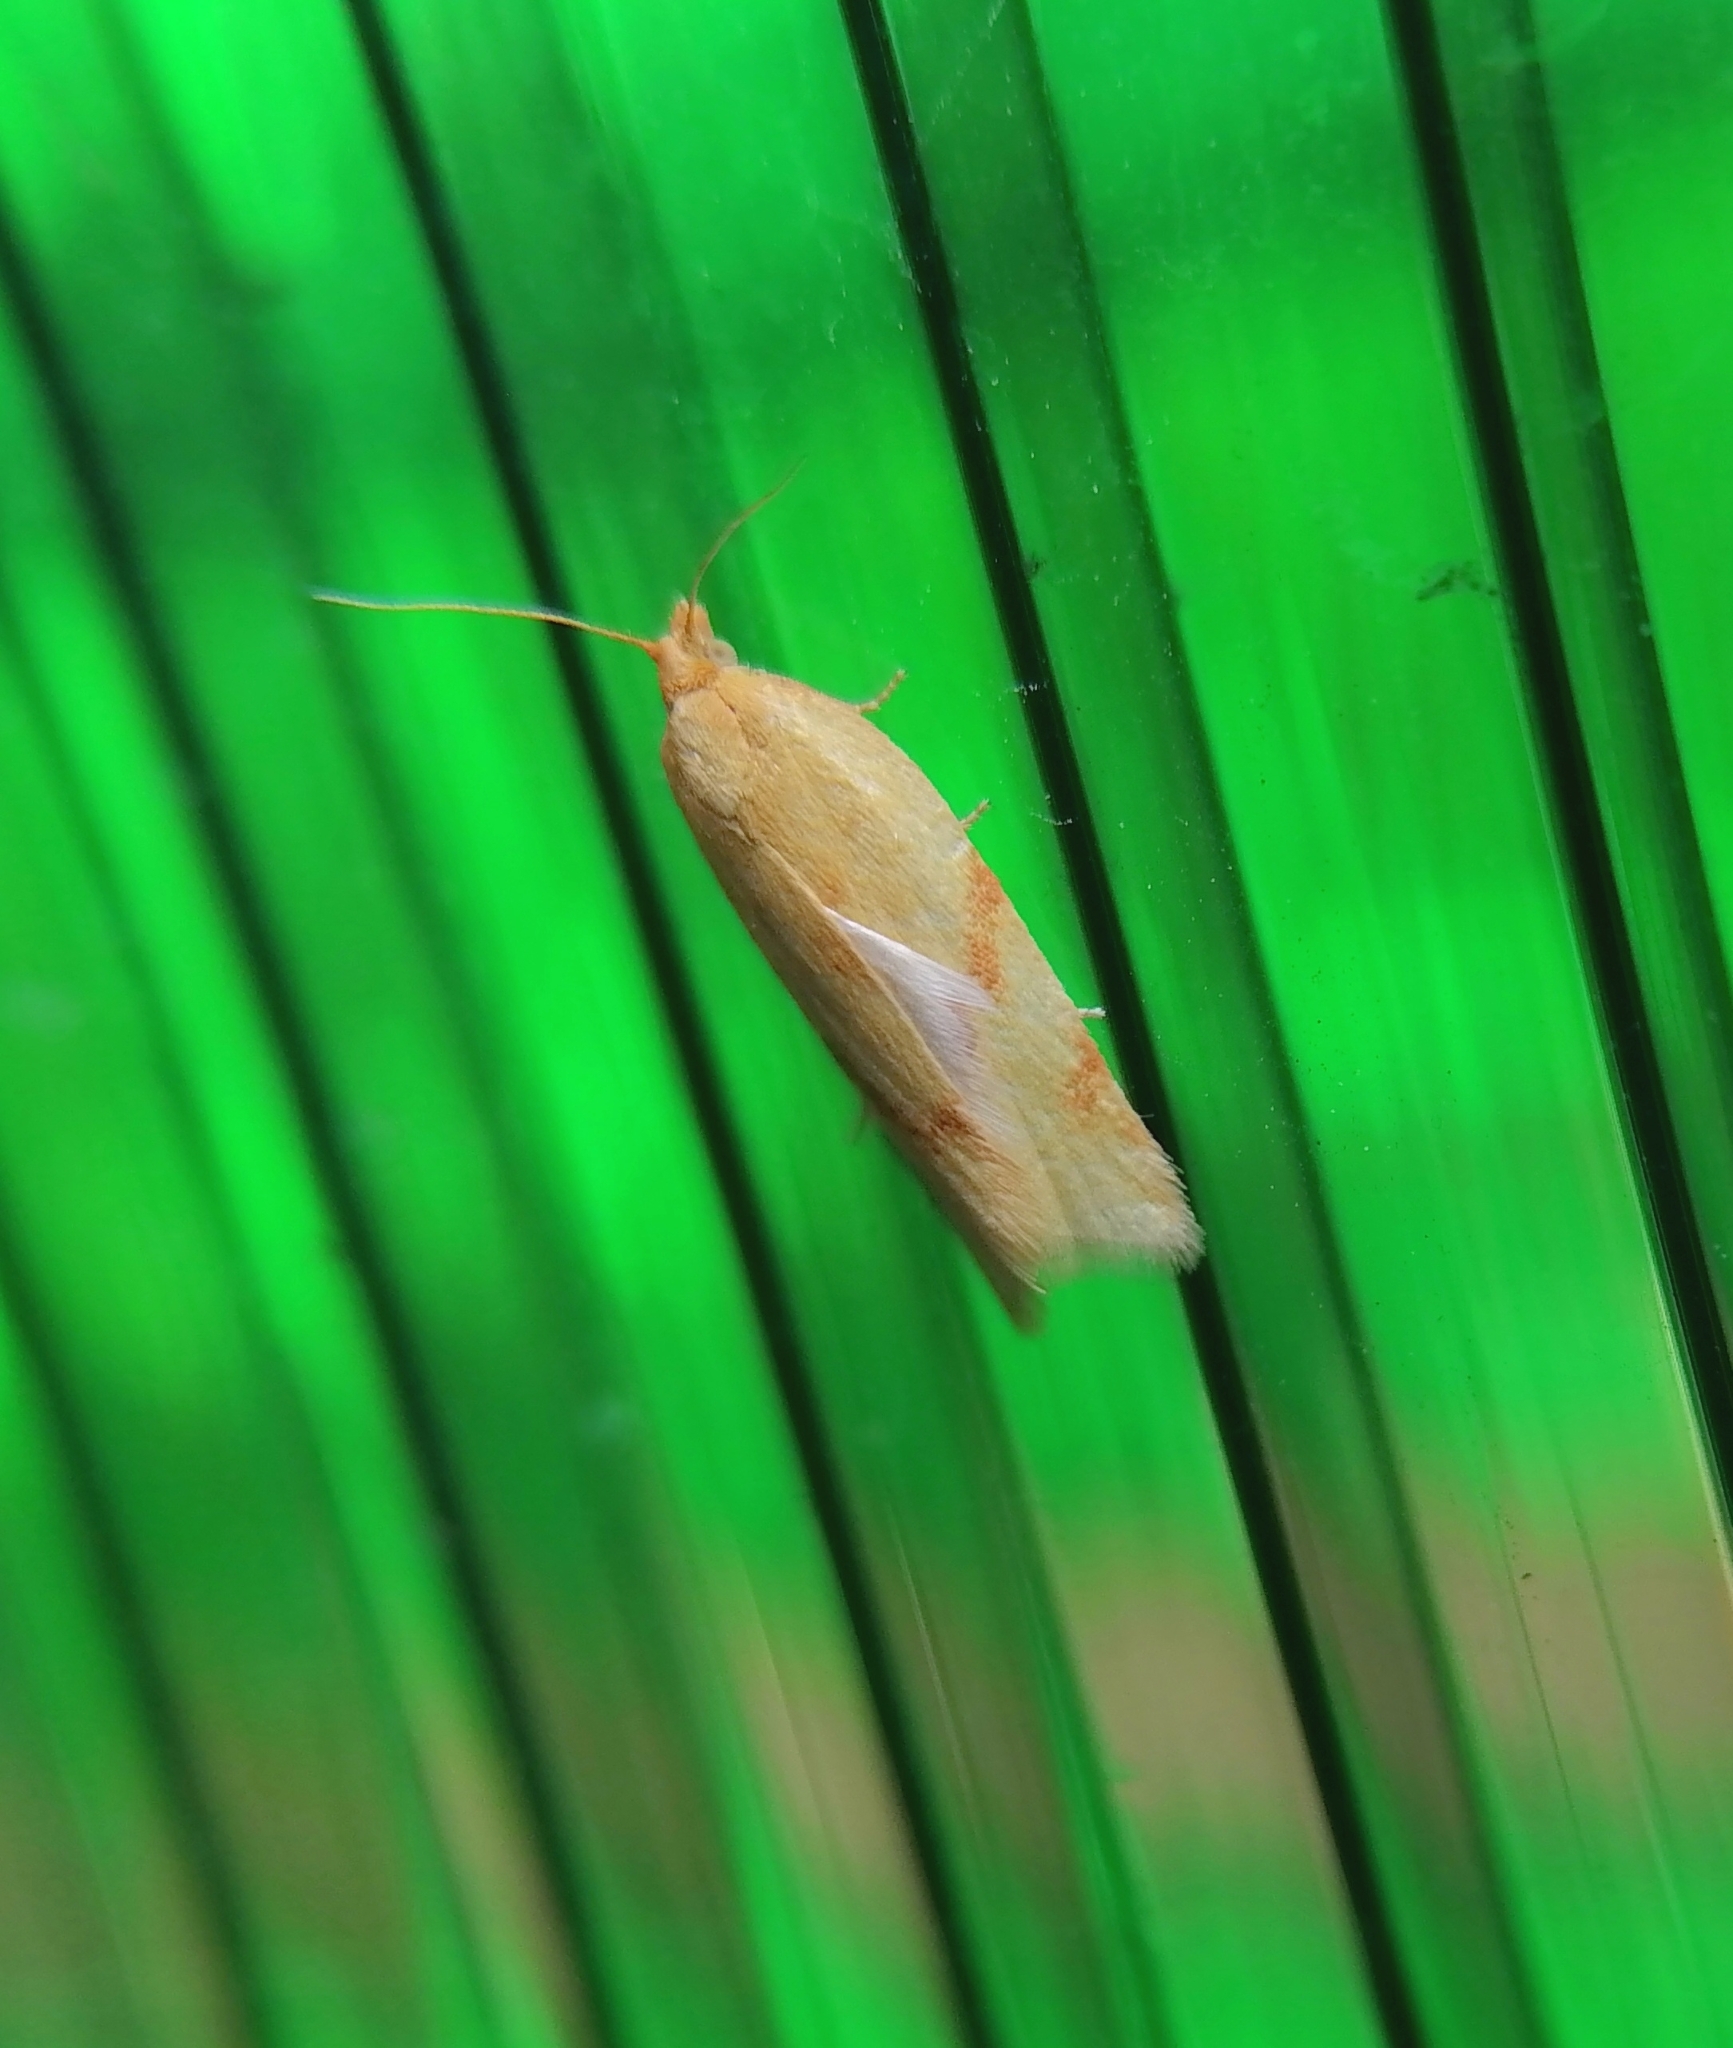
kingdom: Animalia
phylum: Arthropoda
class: Insecta
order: Lepidoptera
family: Tortricidae
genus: Clepsis
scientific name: Clepsis pallidana
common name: Sheep's-bit conch
